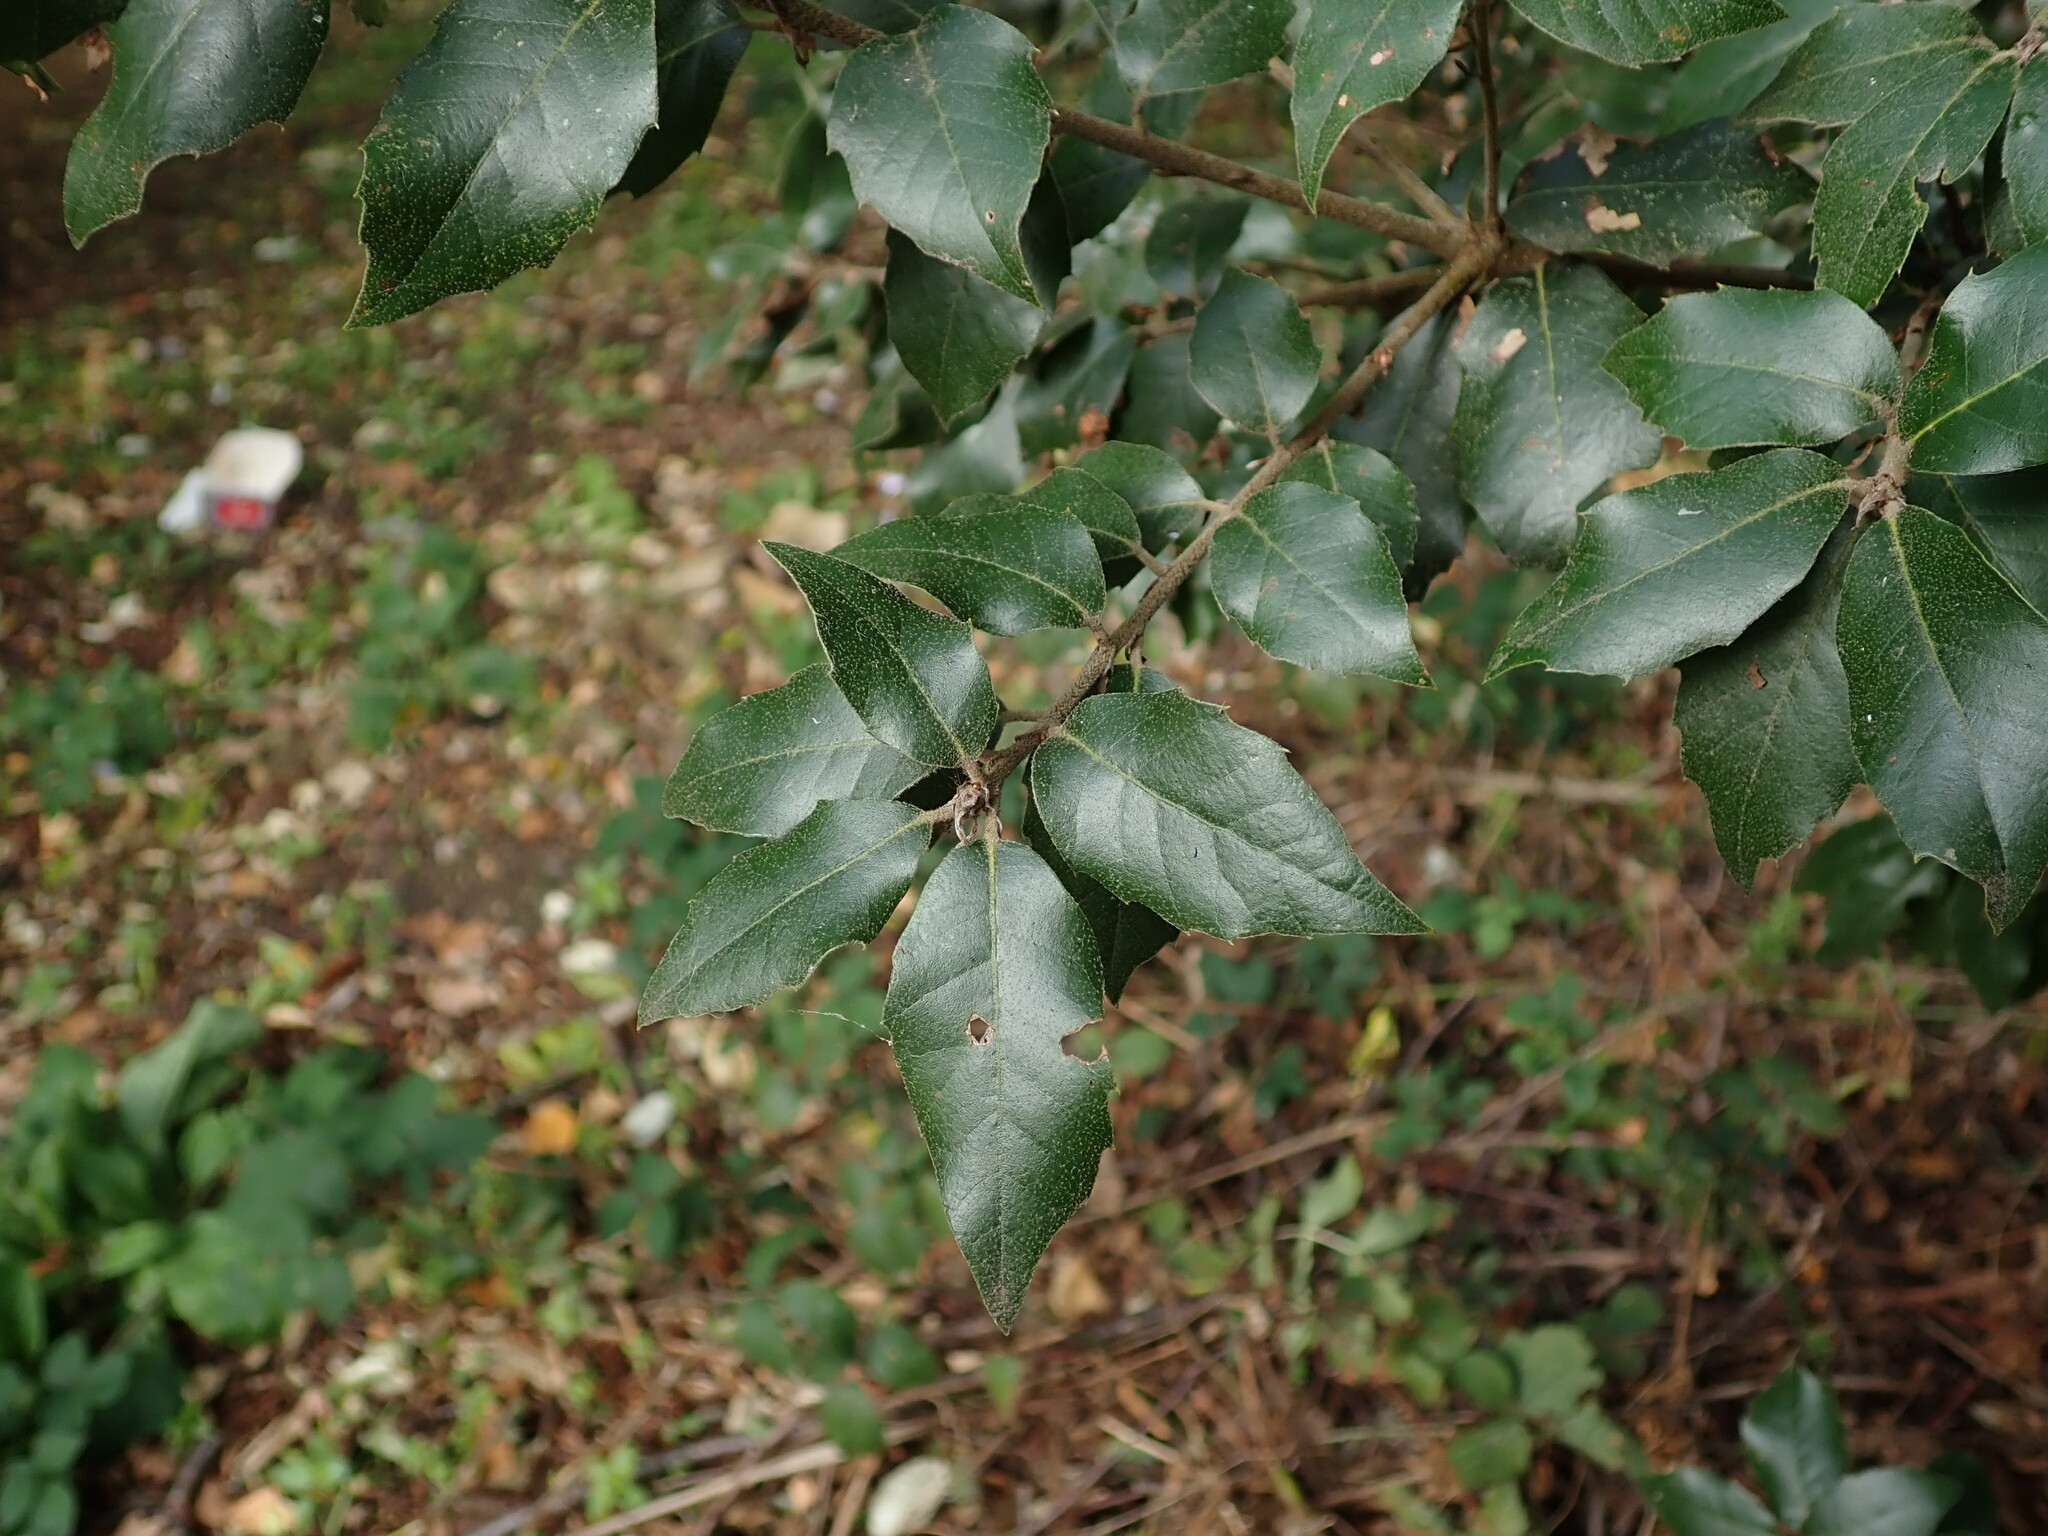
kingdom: Plantae
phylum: Tracheophyta
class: Magnoliopsida
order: Fagales
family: Fagaceae
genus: Quercus
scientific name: Quercus ilex
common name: Evergreen oak
